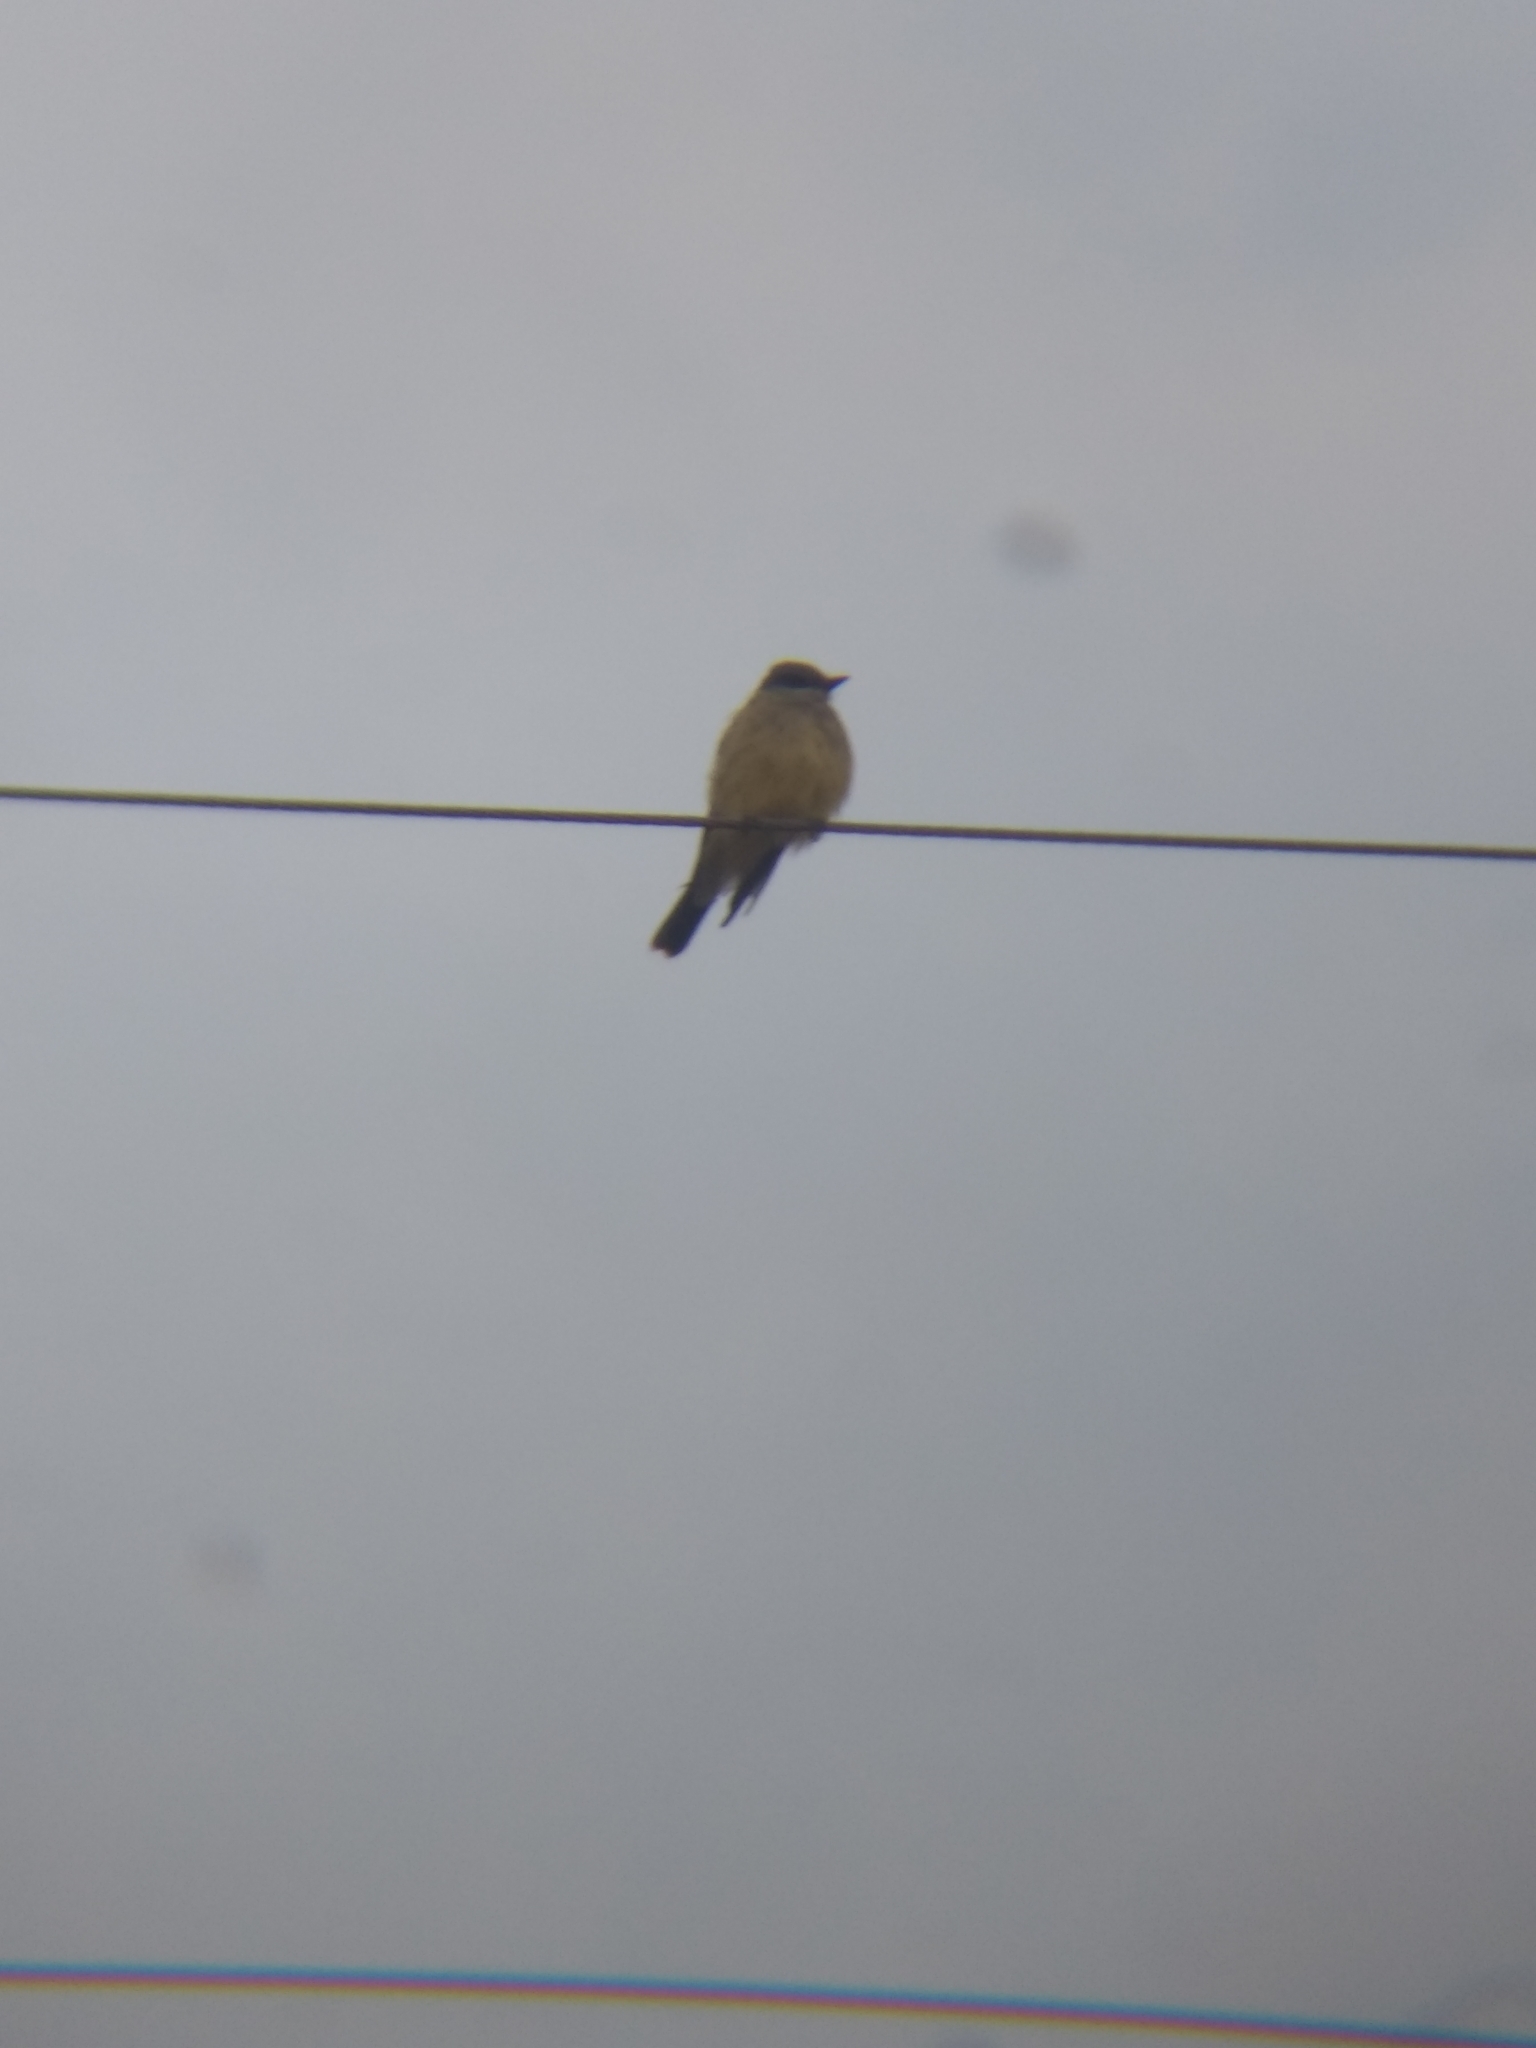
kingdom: Animalia
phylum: Chordata
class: Aves
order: Passeriformes
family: Tyrannidae
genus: Tyrannus
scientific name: Tyrannus vociferans
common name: Cassin's kingbird
